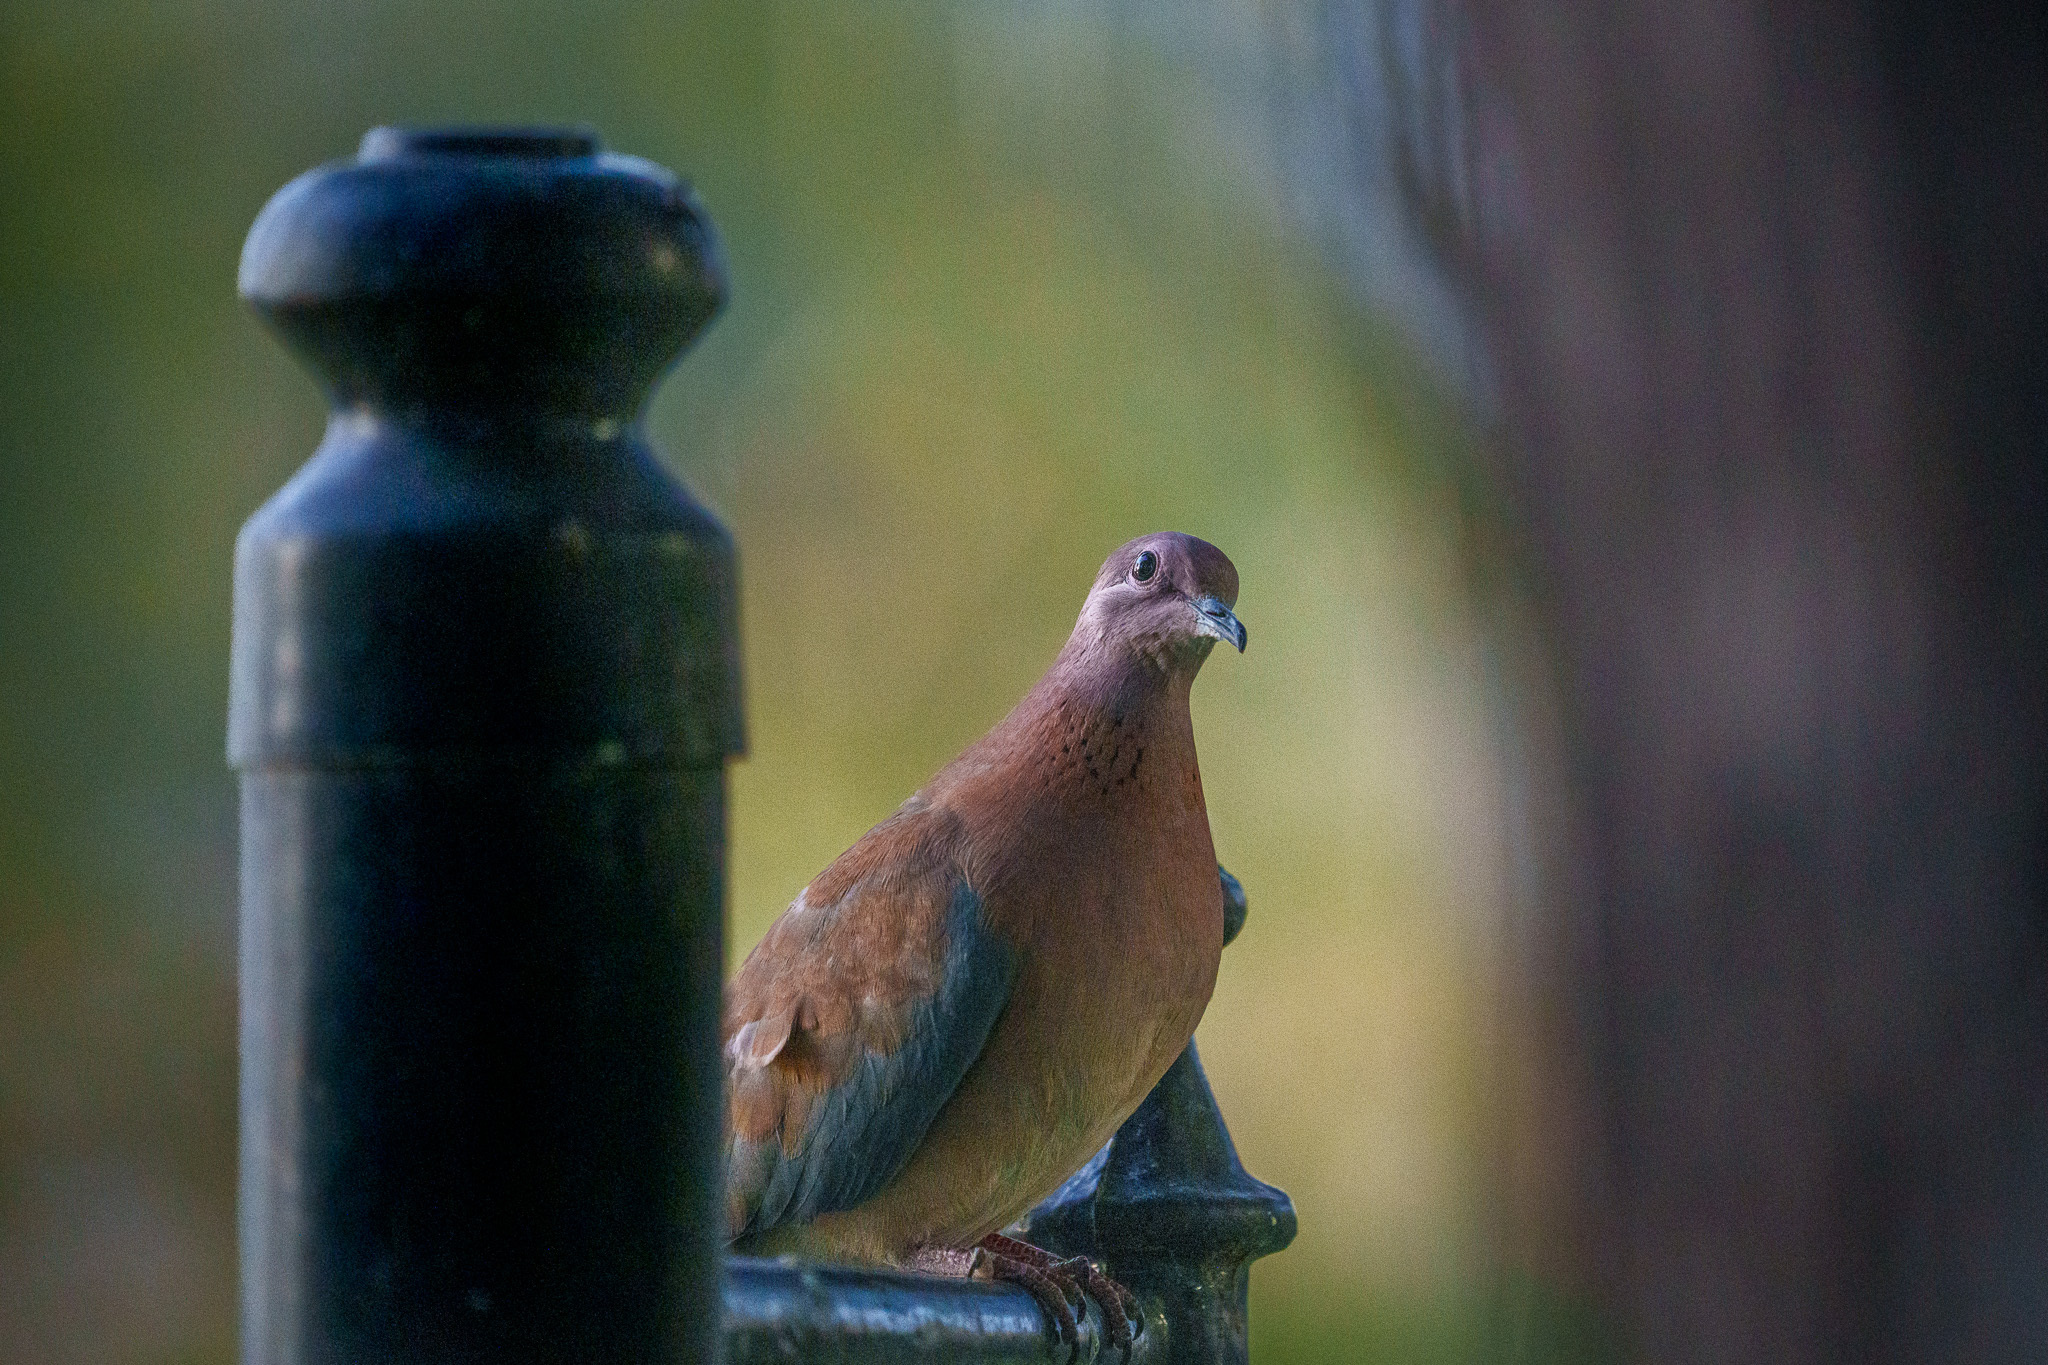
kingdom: Animalia
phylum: Chordata
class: Aves
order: Columbiformes
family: Columbidae
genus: Spilopelia
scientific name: Spilopelia senegalensis
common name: Laughing dove
